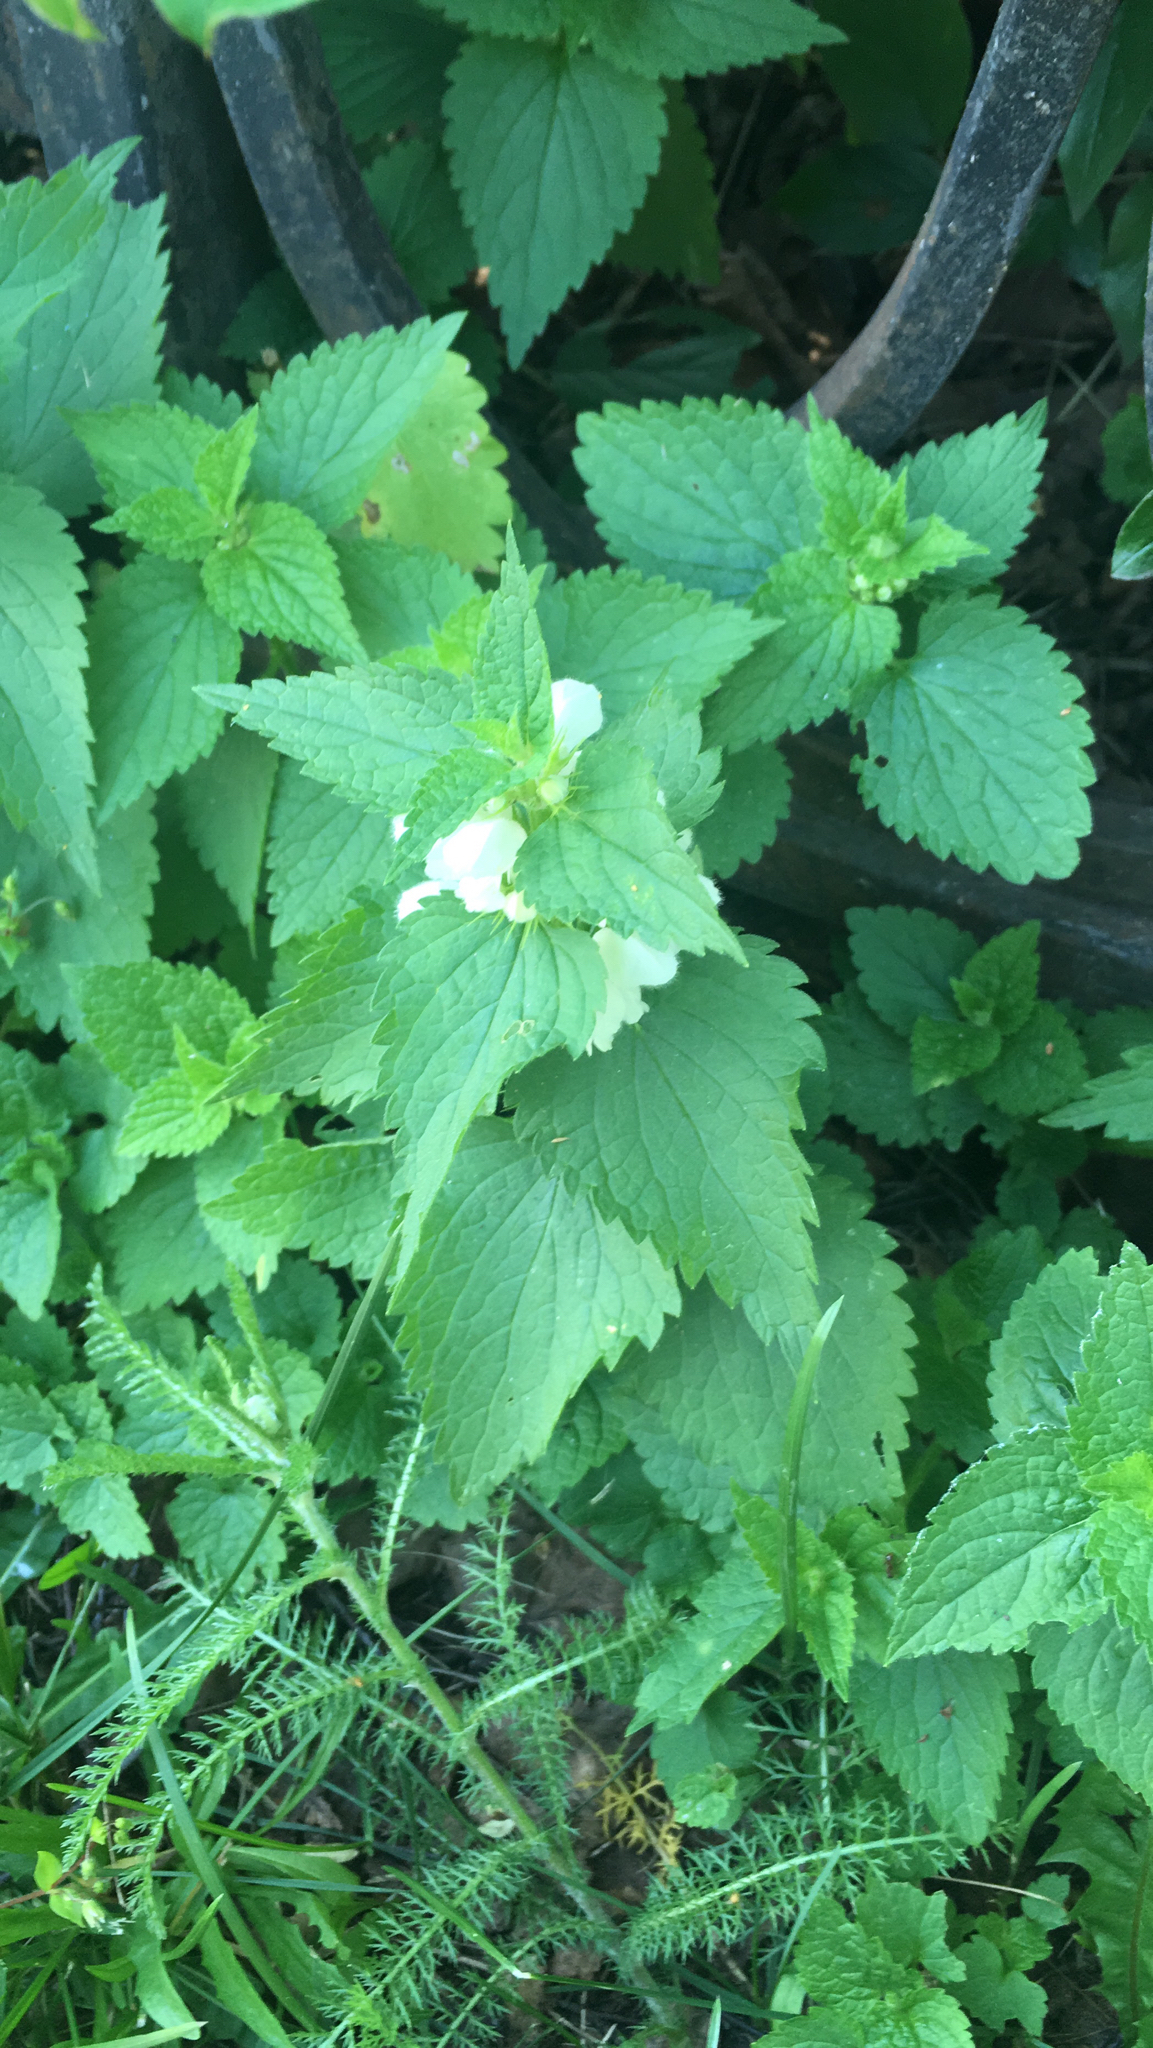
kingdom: Plantae
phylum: Tracheophyta
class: Magnoliopsida
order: Lamiales
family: Lamiaceae
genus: Lamium
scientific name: Lamium album
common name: White dead-nettle
